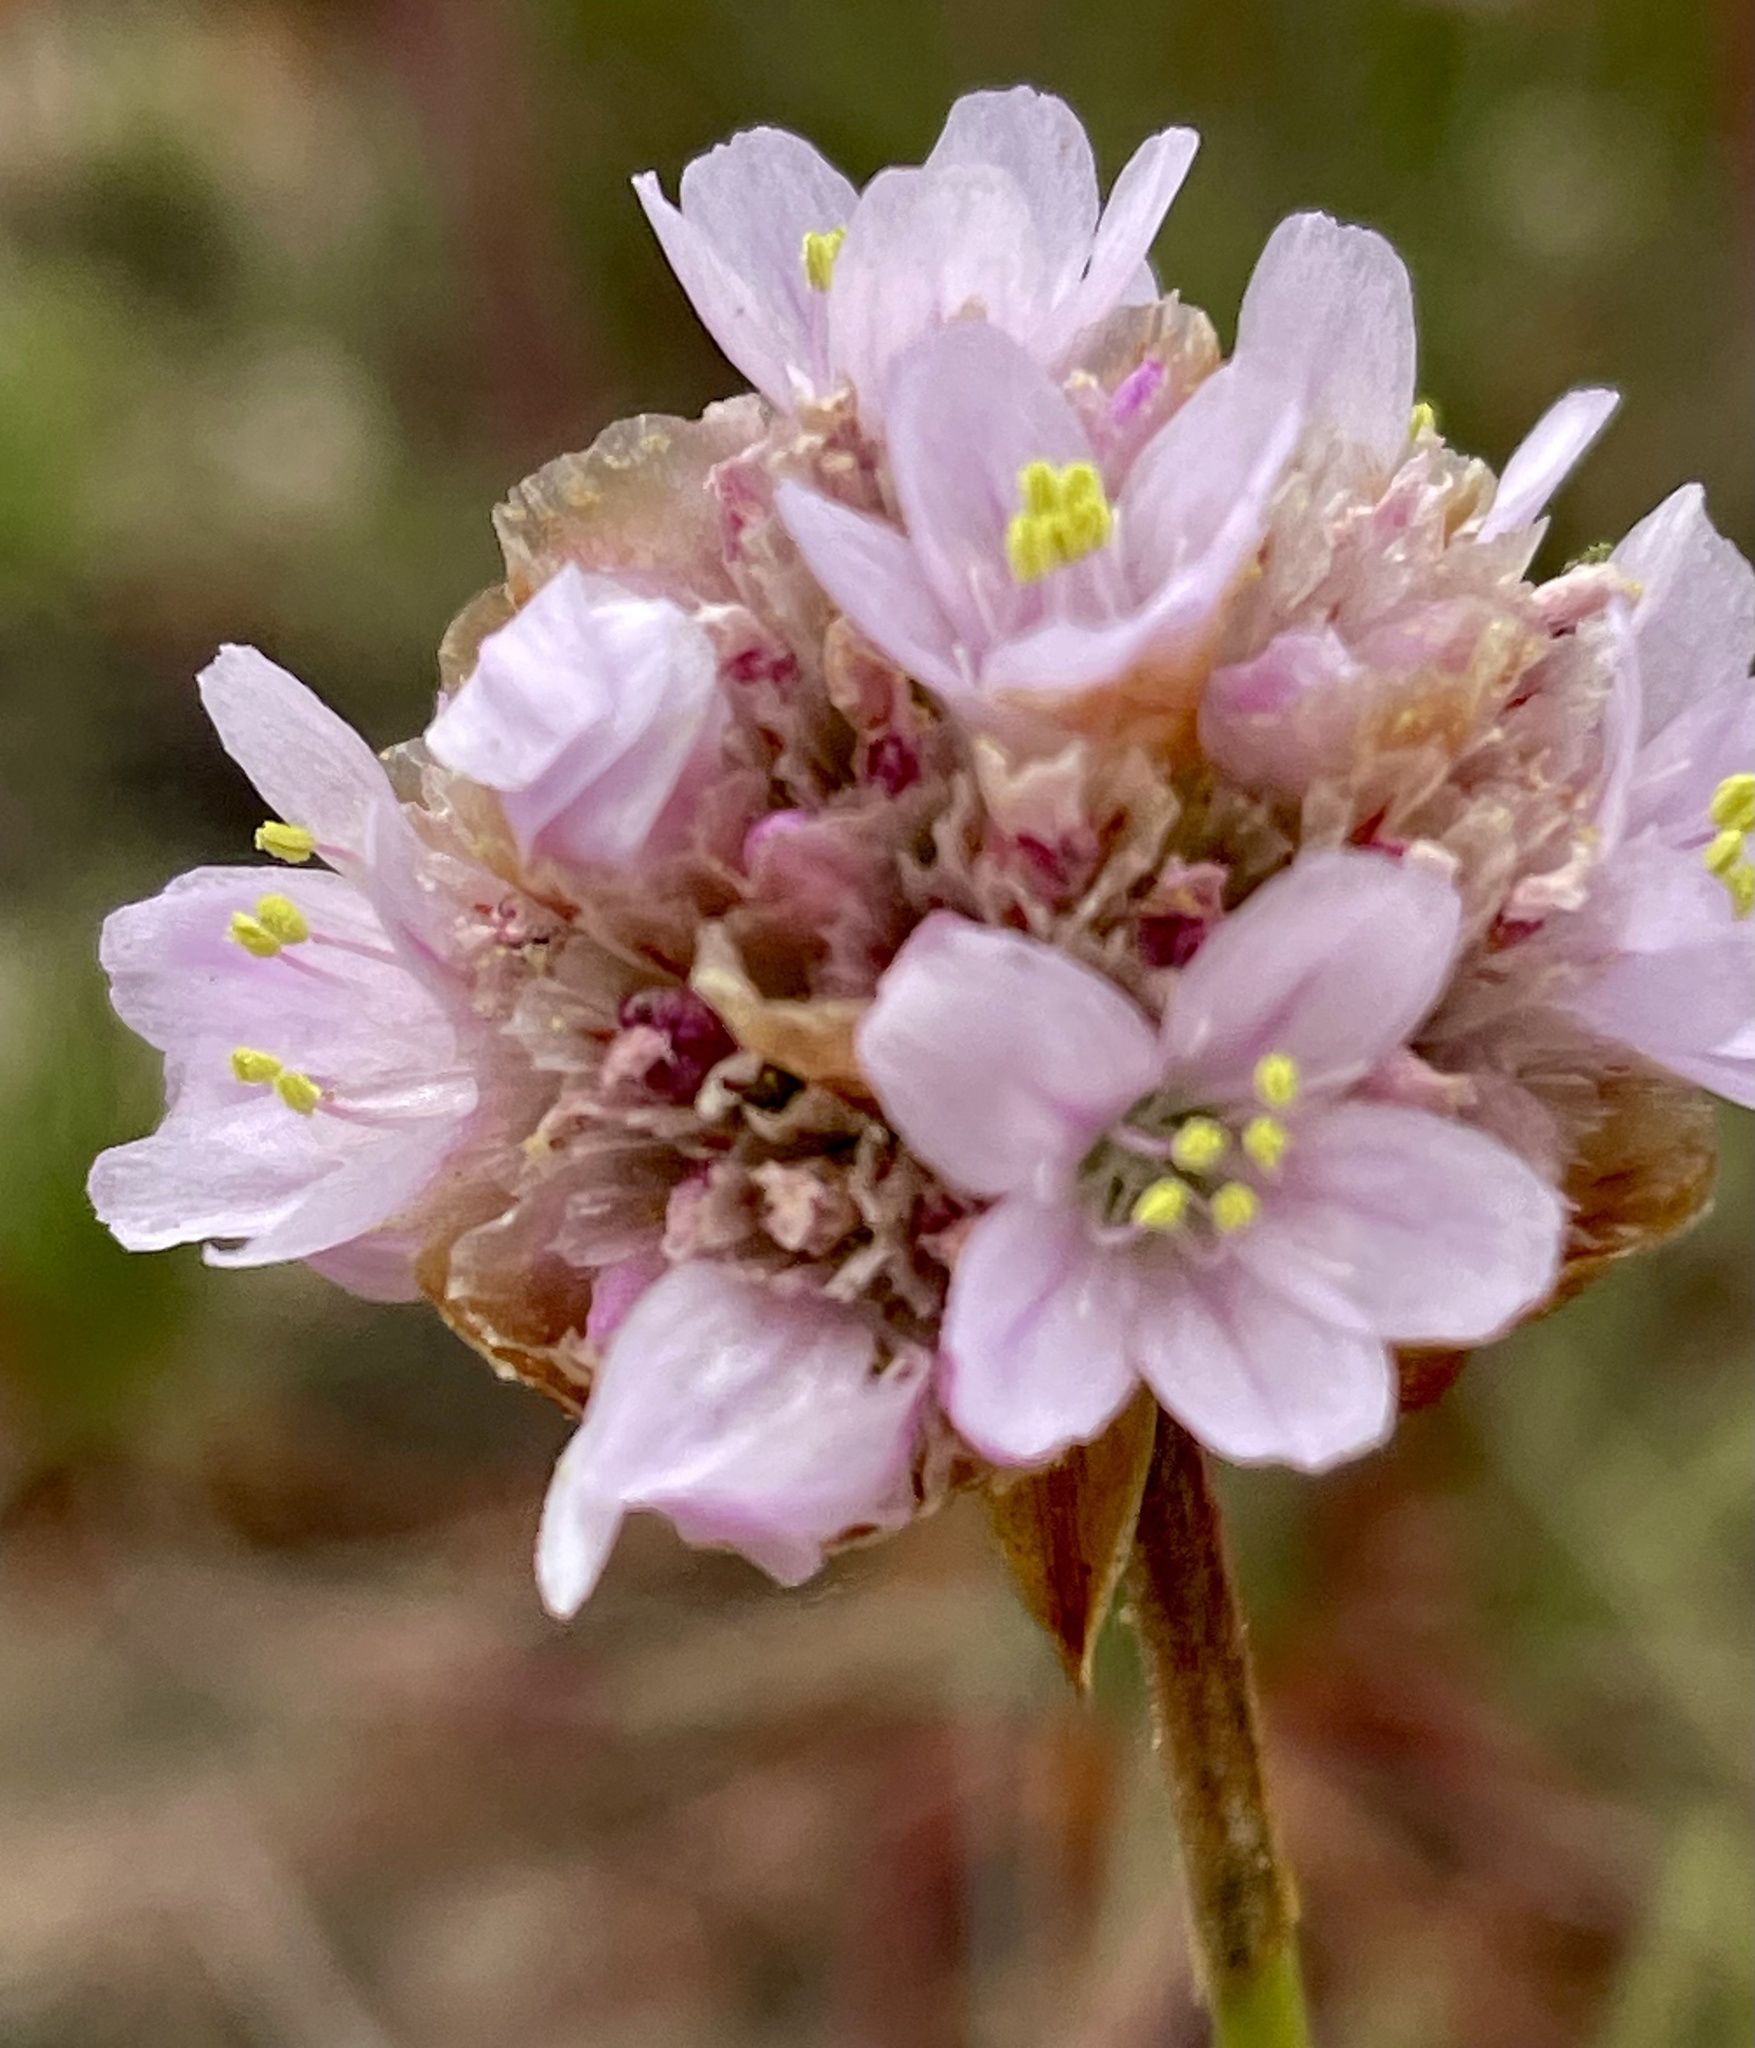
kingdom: Plantae
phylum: Tracheophyta
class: Magnoliopsida
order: Caryophyllales
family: Plumbaginaceae
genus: Armeria
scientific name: Armeria maritima
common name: Thrift
